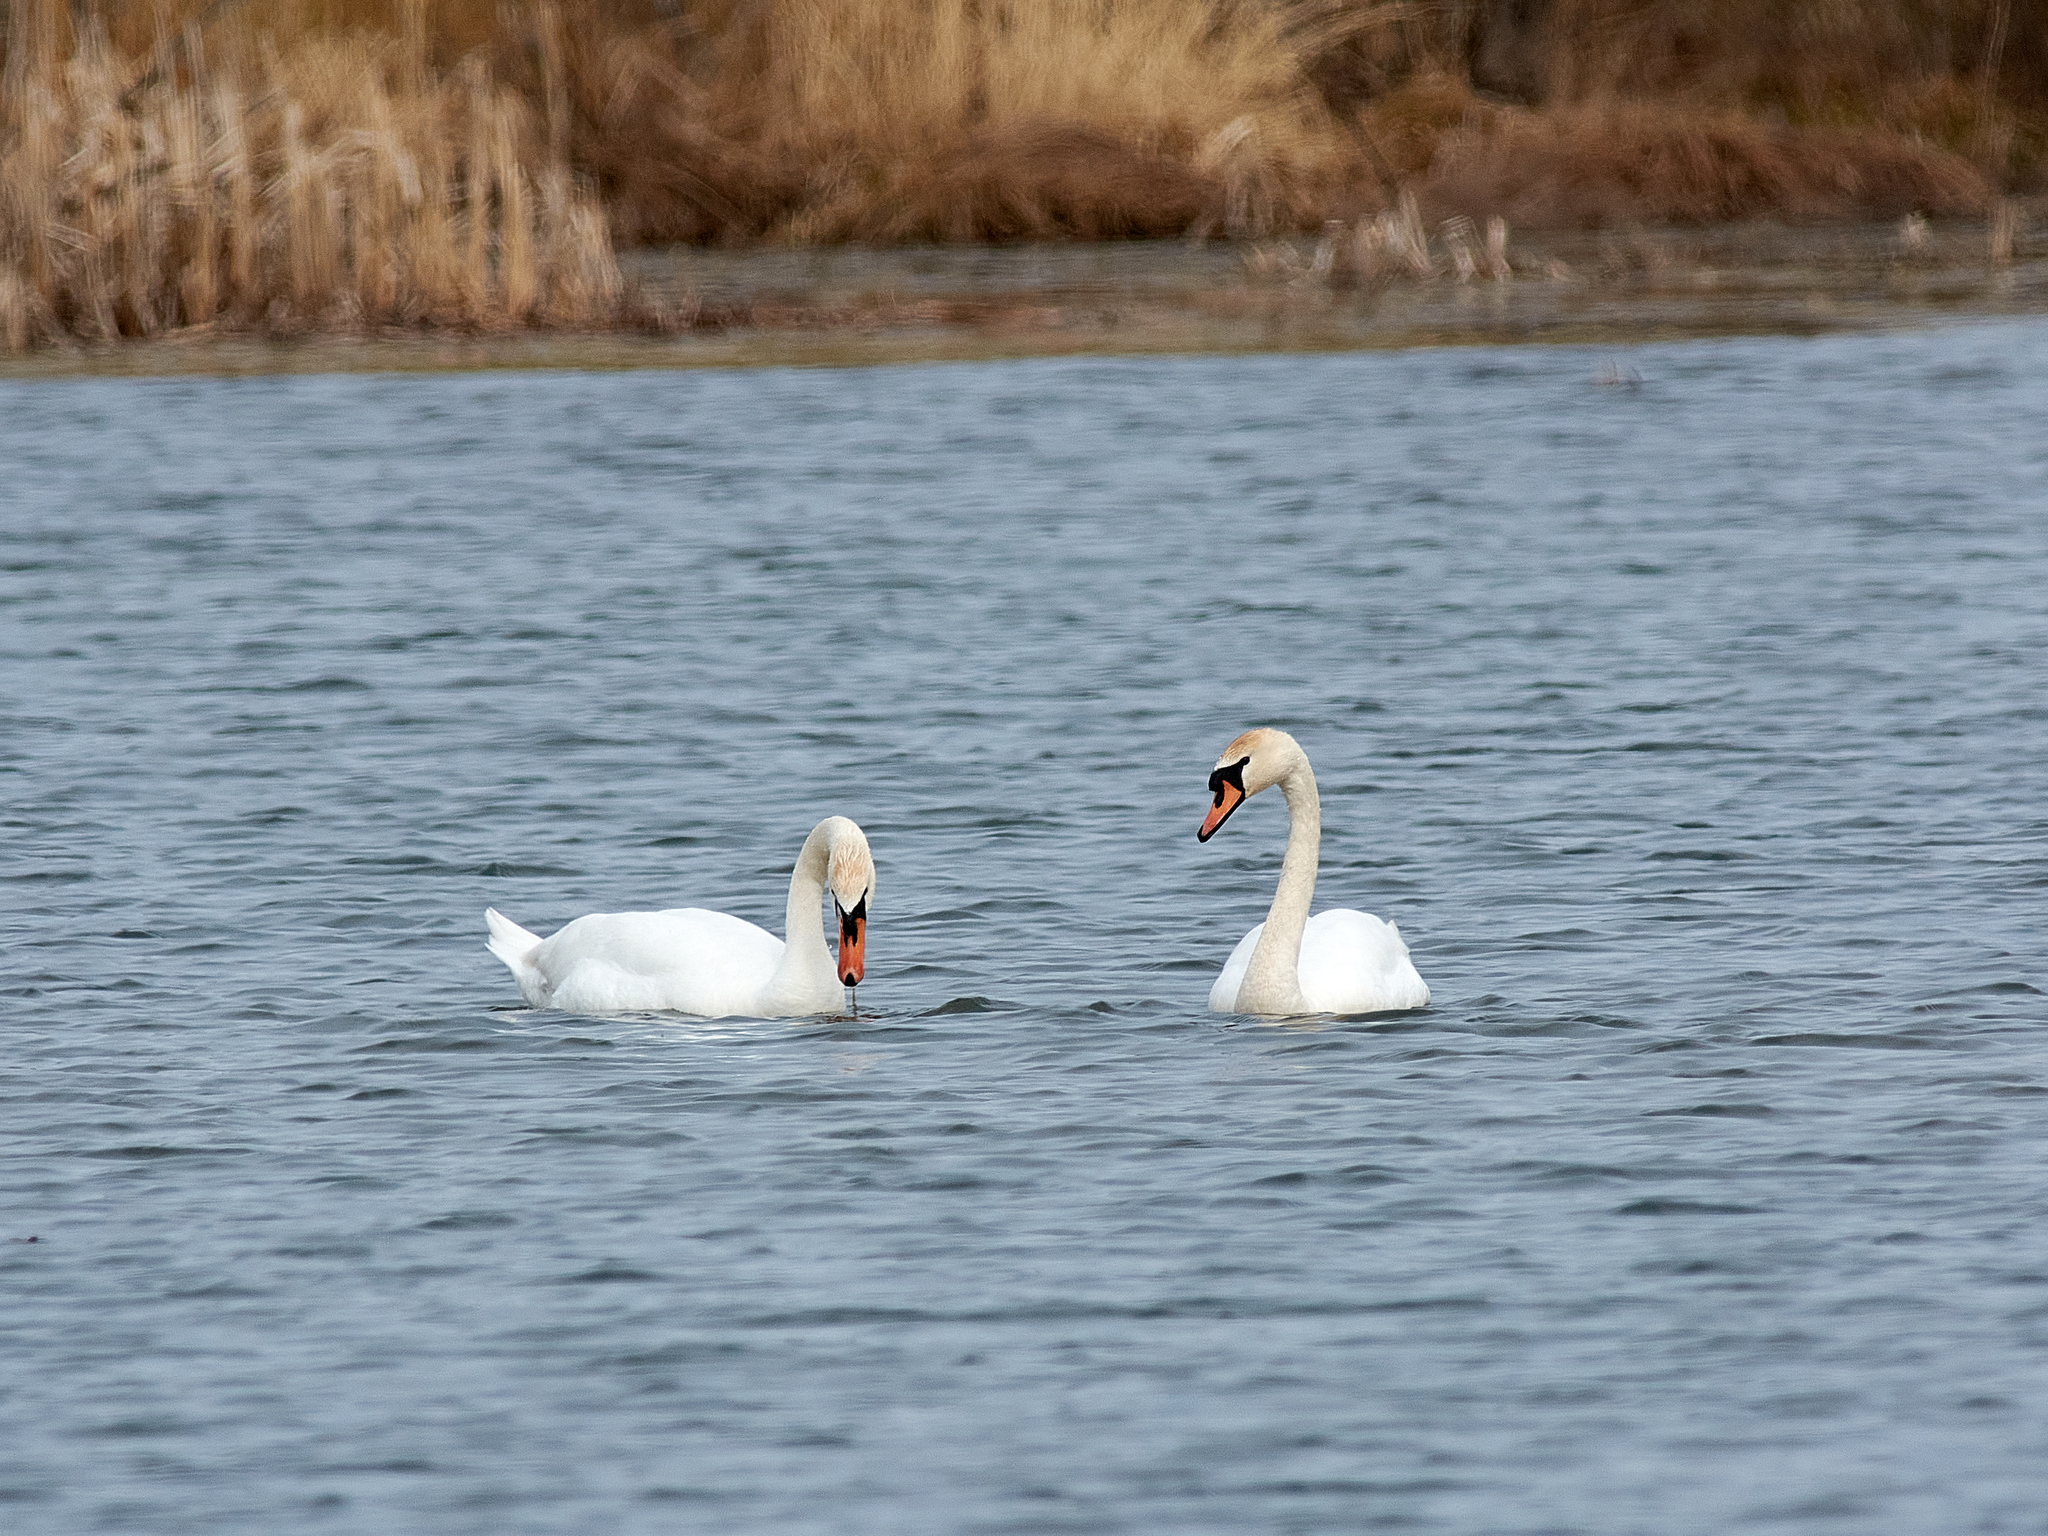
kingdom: Animalia
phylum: Chordata
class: Aves
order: Anseriformes
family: Anatidae
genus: Cygnus
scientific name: Cygnus olor
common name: Mute swan
